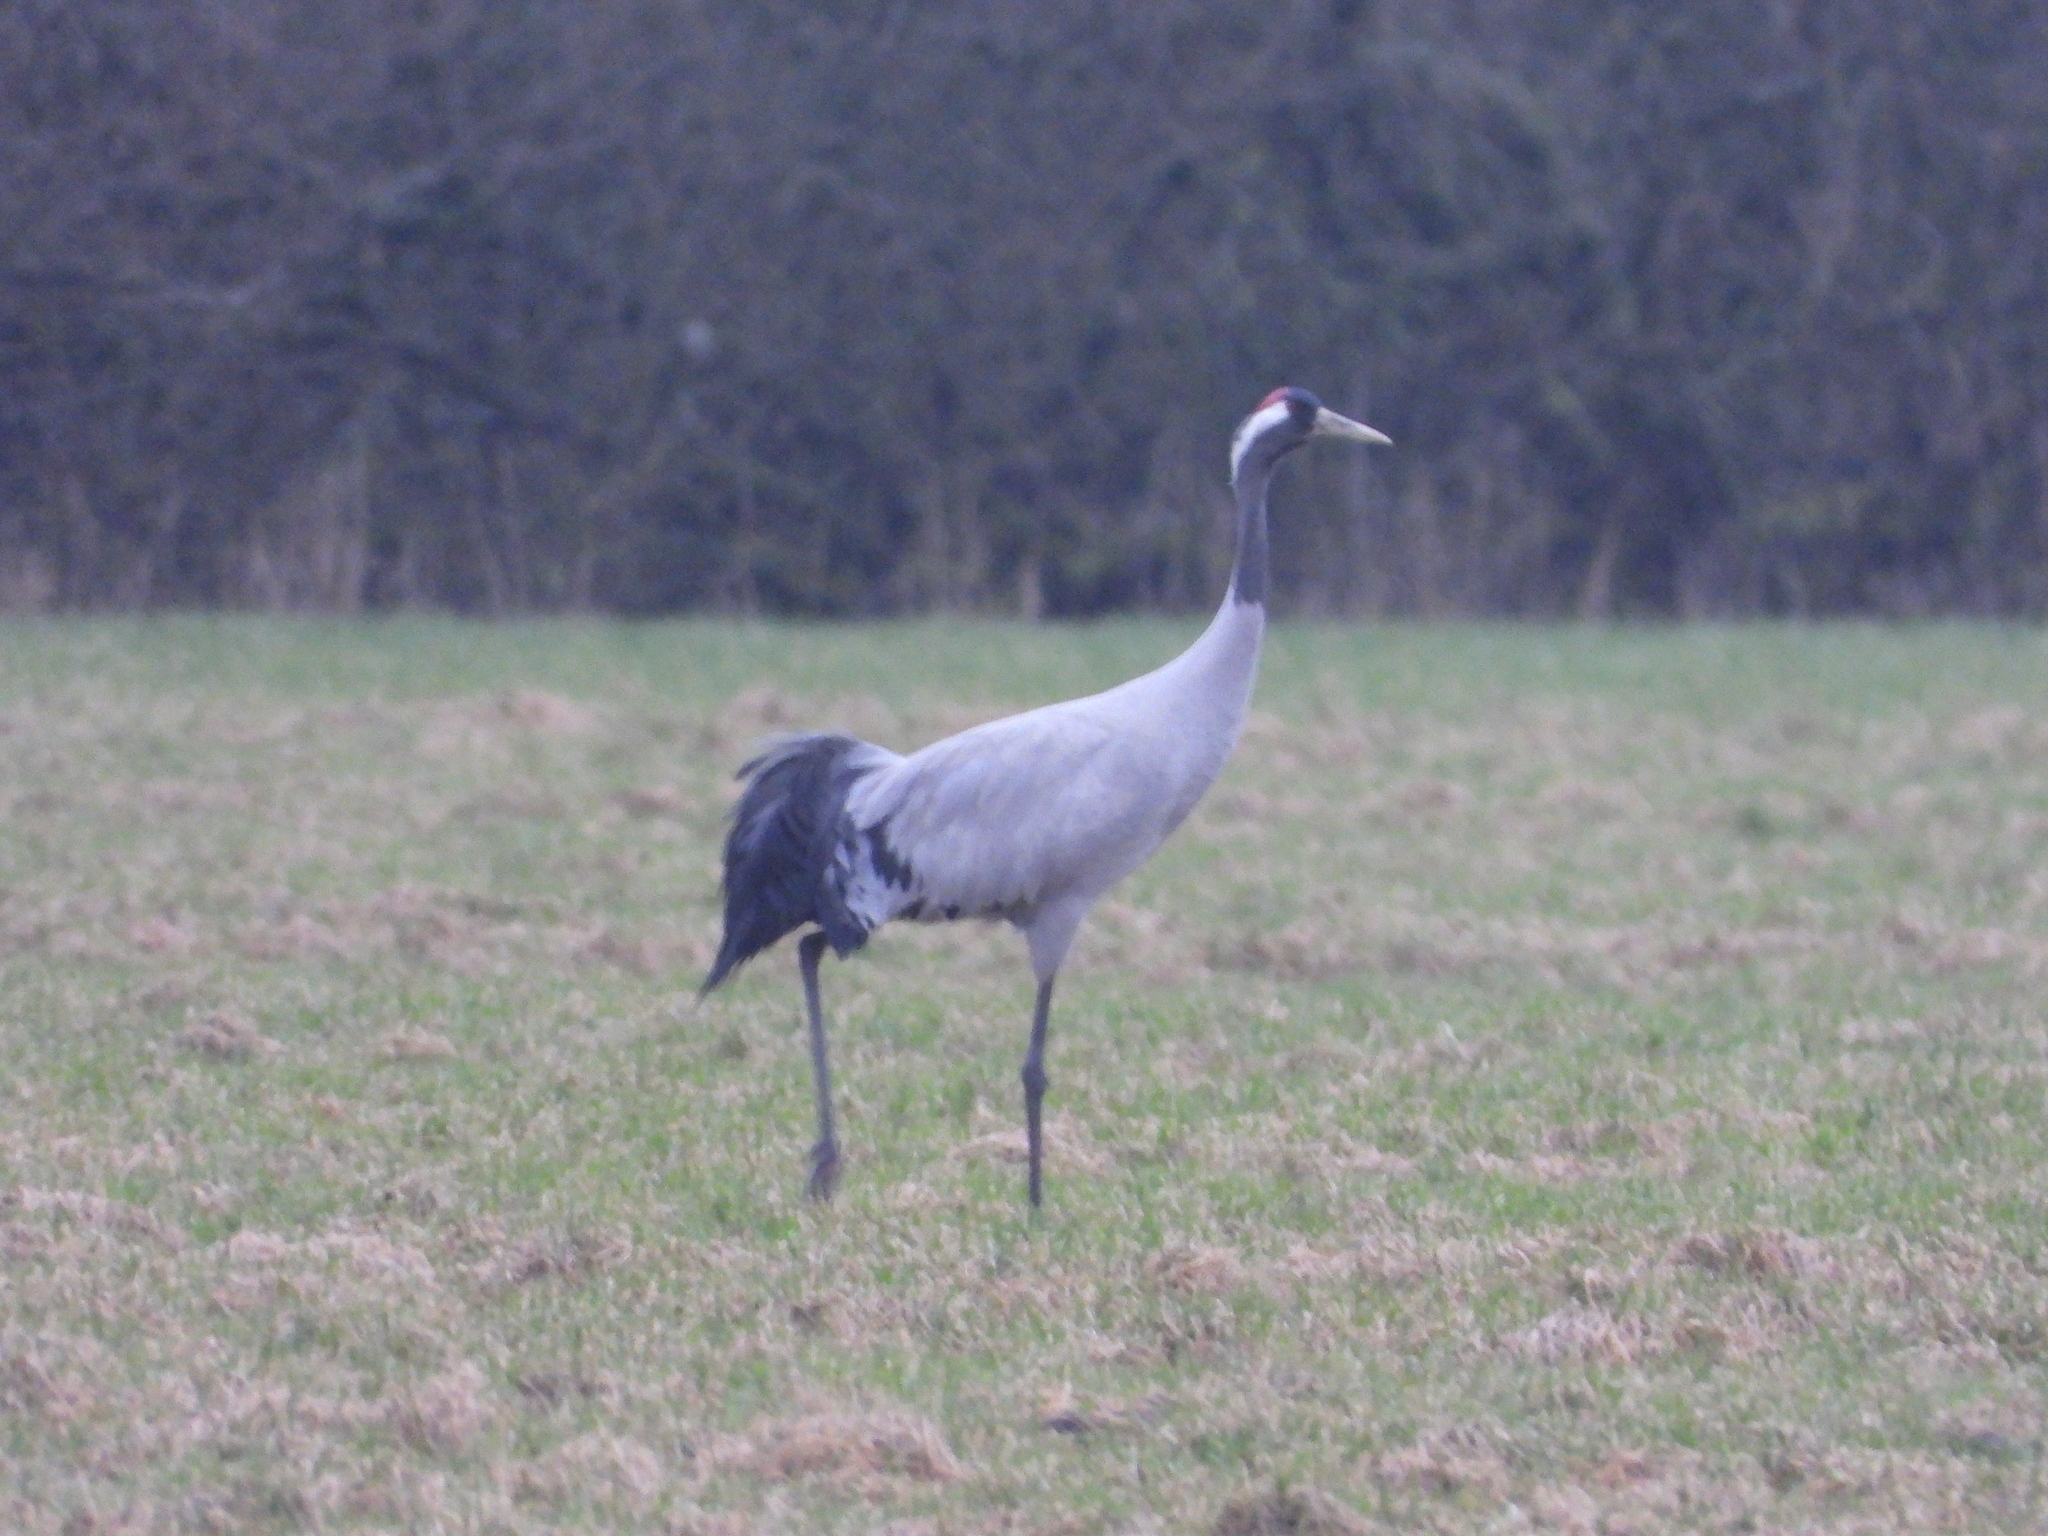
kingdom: Animalia
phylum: Chordata
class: Aves
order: Gruiformes
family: Gruidae
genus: Grus
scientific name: Grus grus
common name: Common crane
